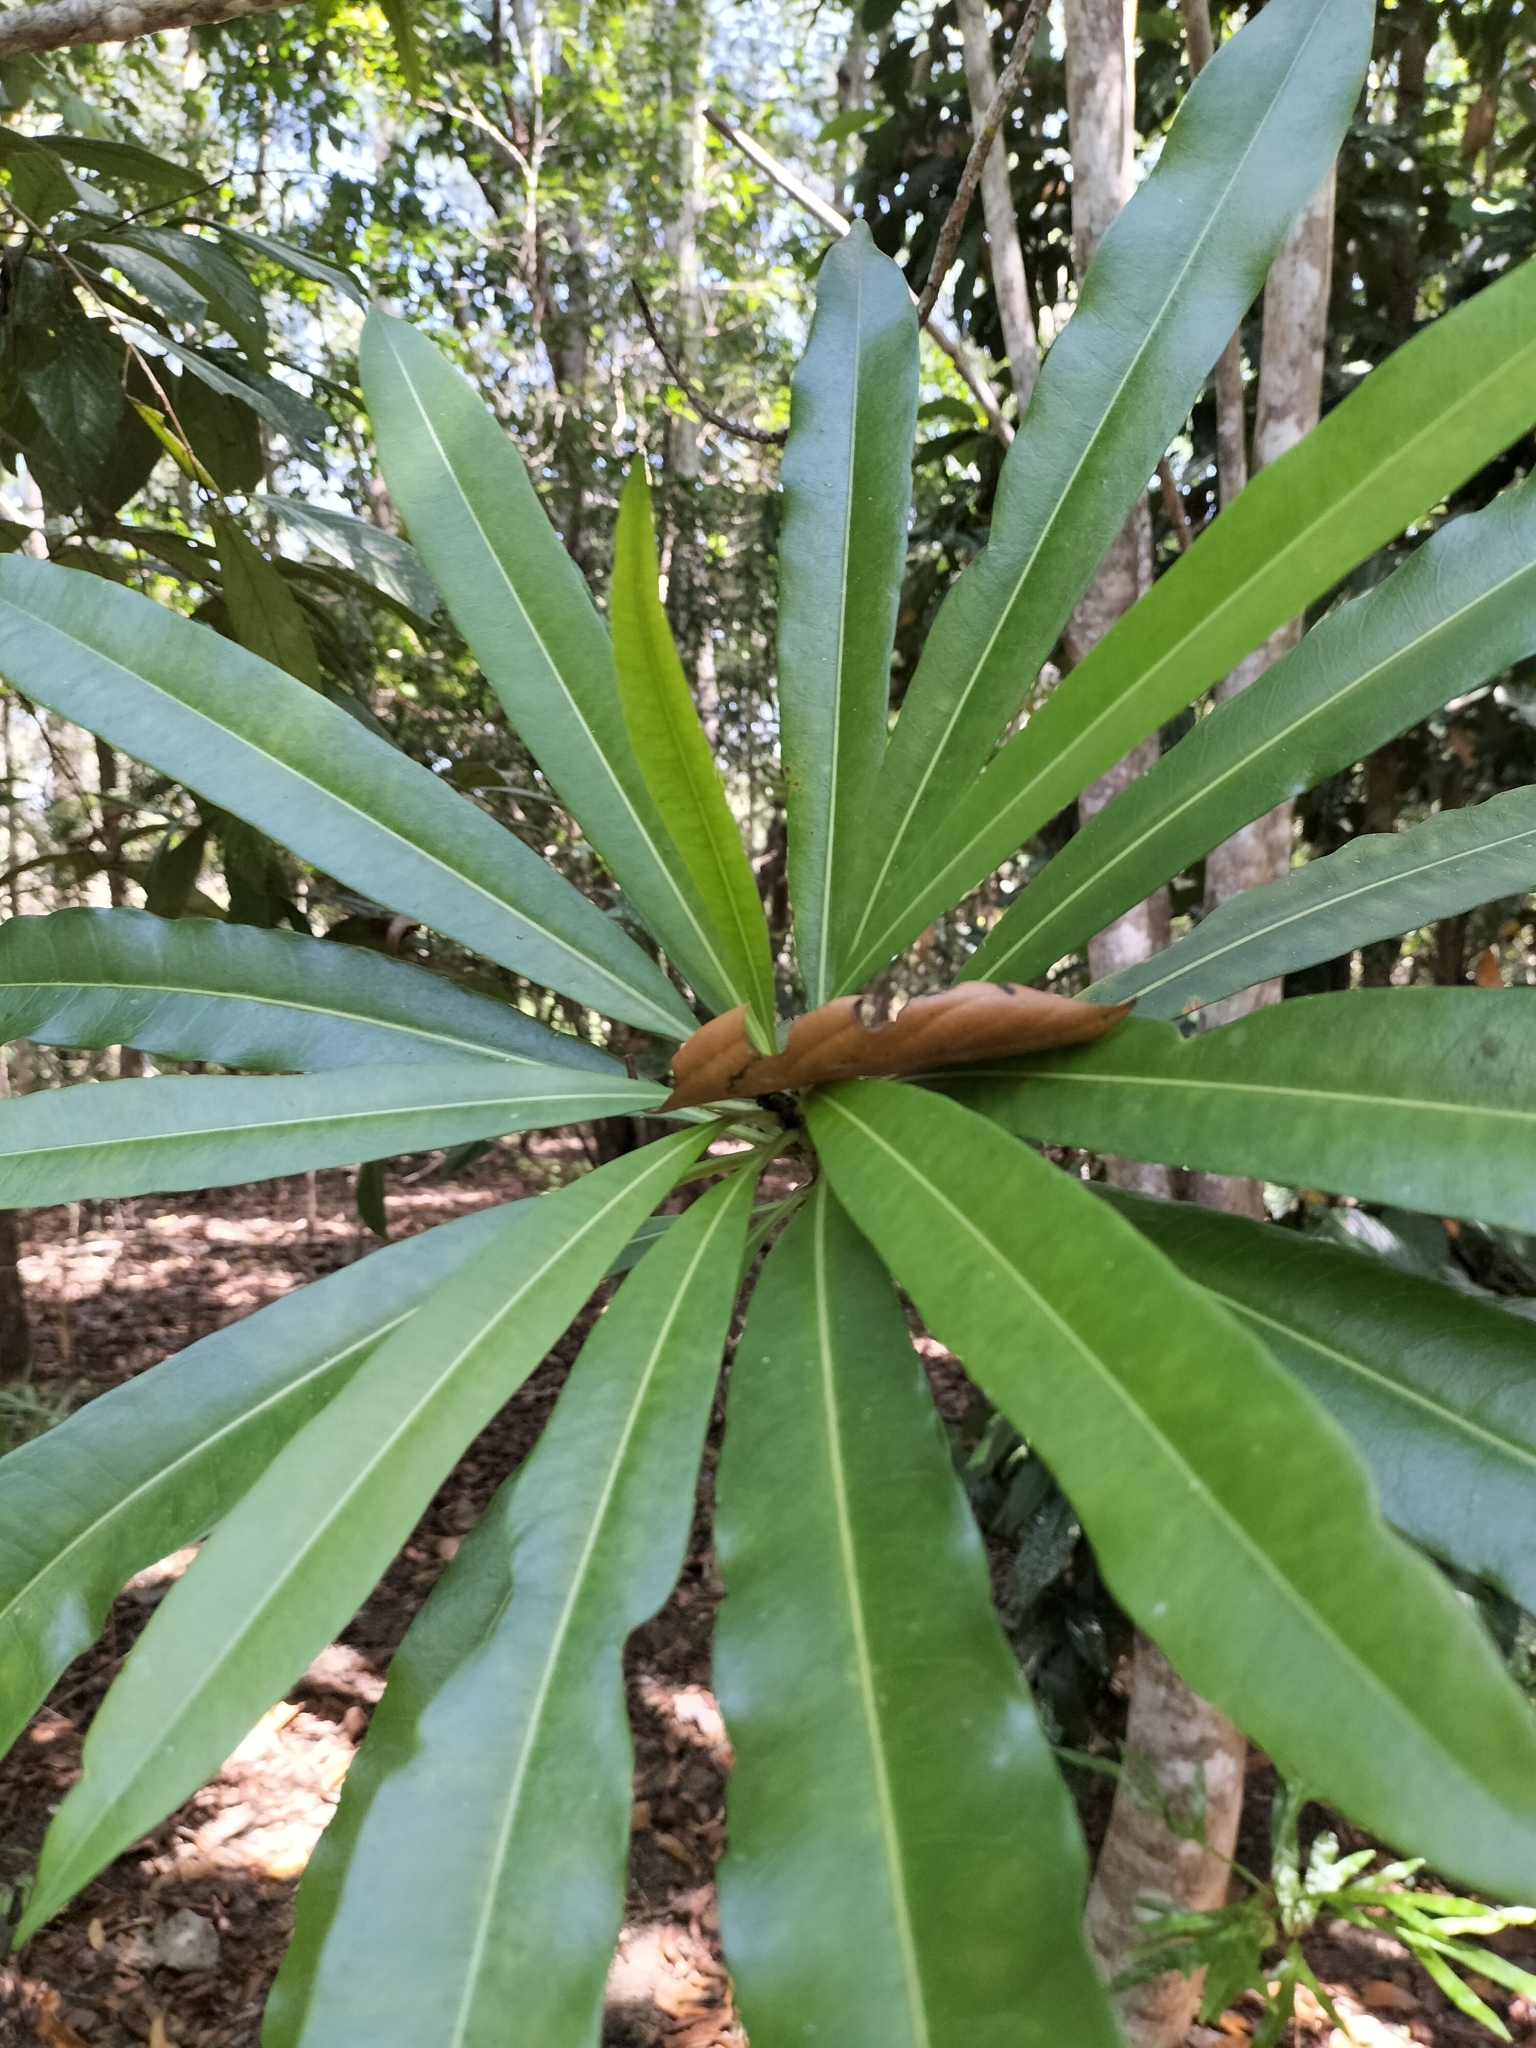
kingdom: Plantae
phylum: Tracheophyta
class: Magnoliopsida
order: Gentianales
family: Apocynaceae
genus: Cerbera
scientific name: Cerbera inflata
